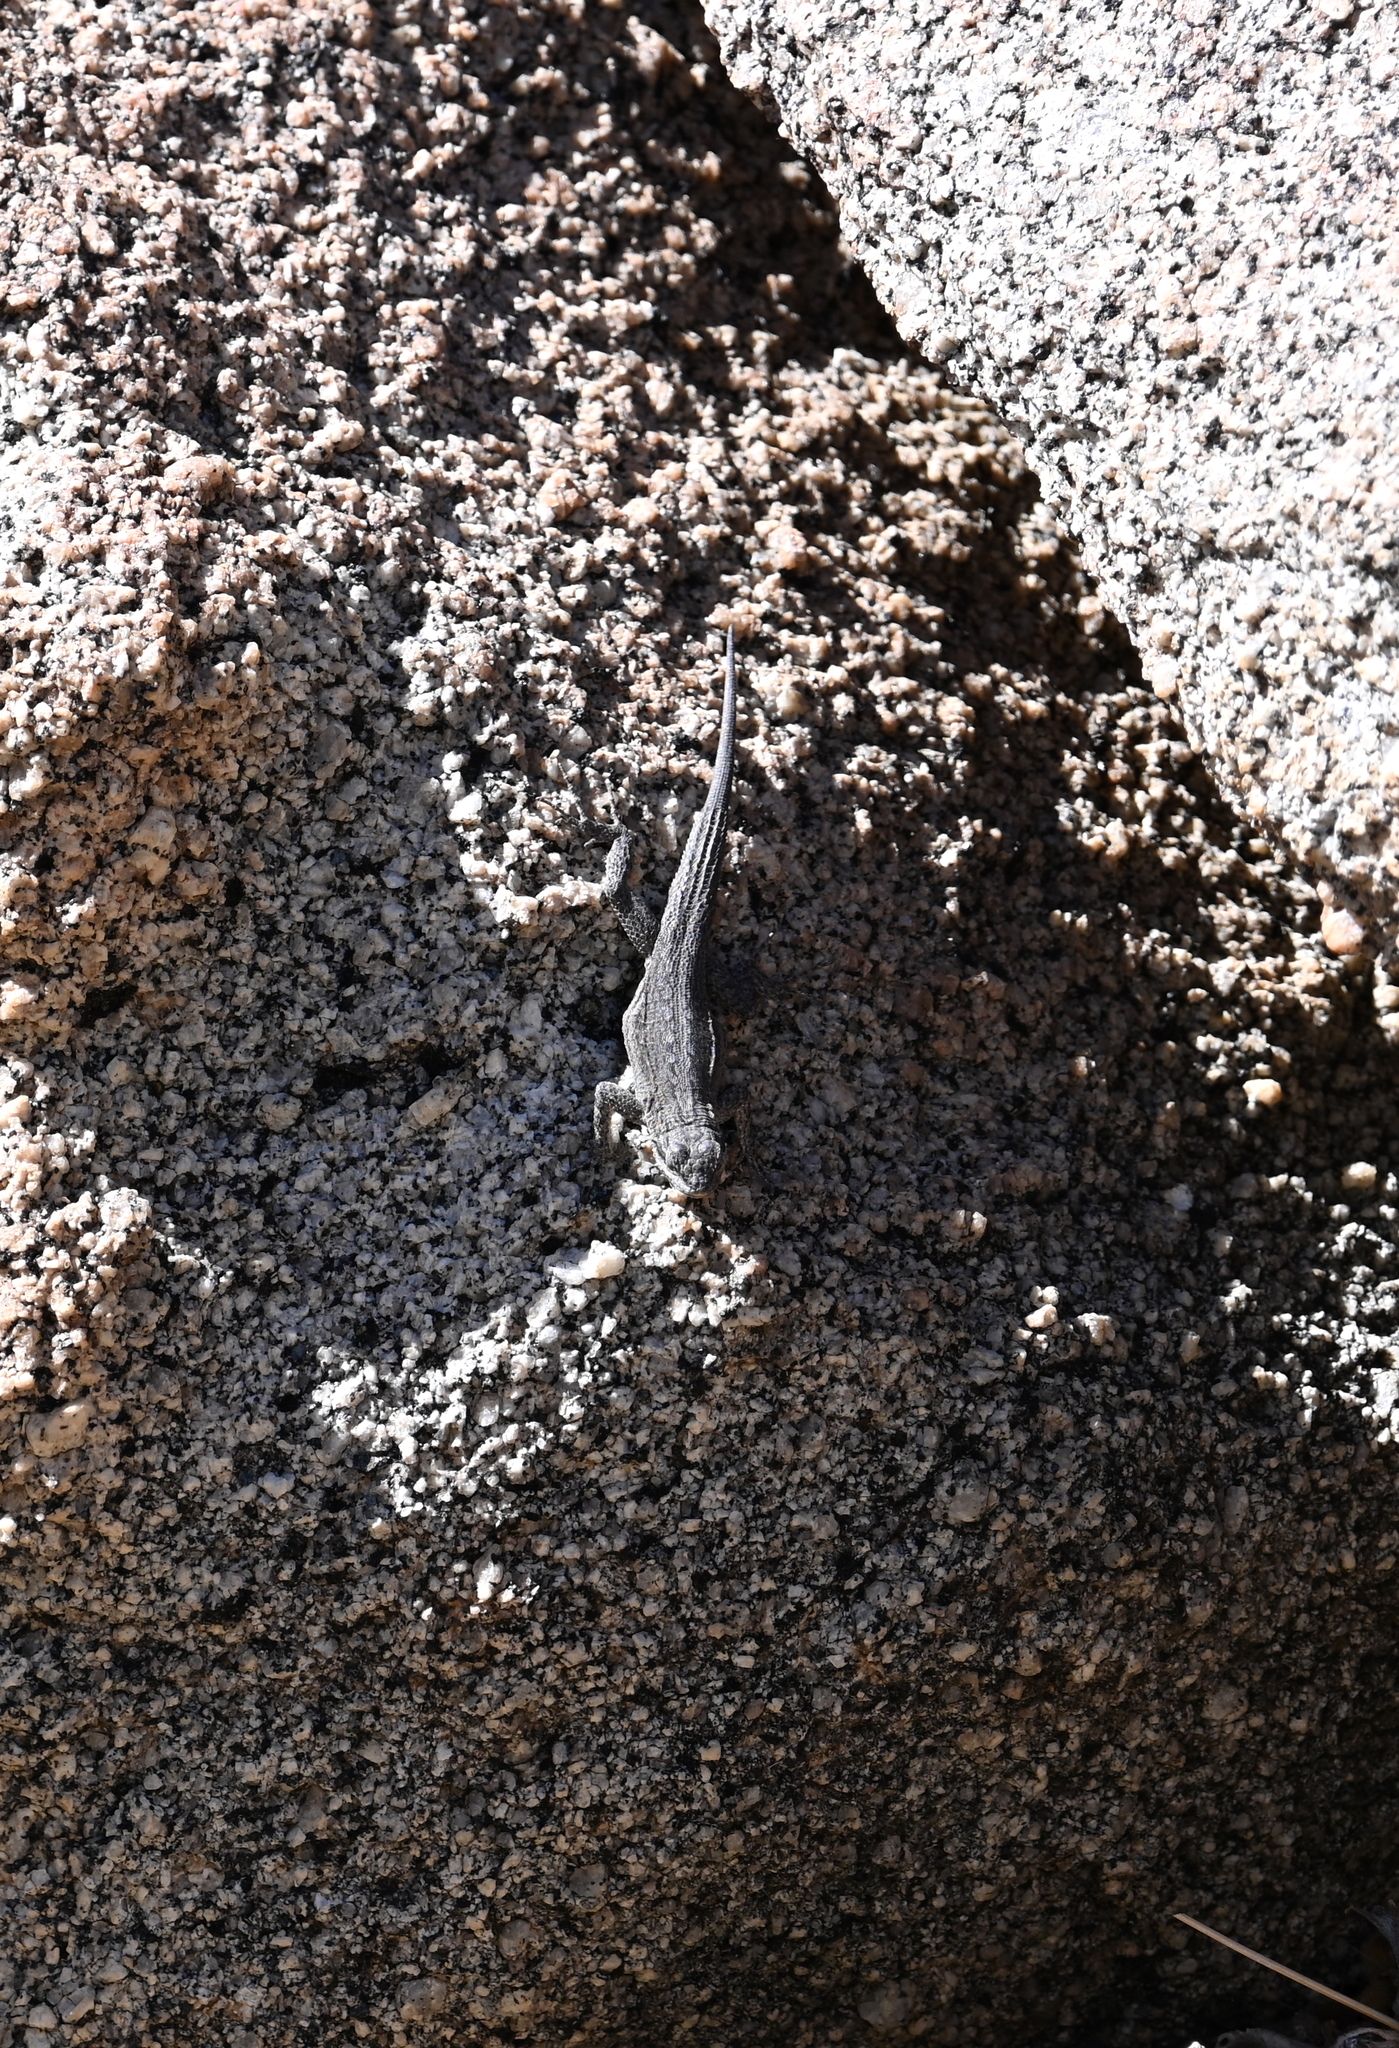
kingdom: Animalia
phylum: Chordata
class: Squamata
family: Phrynosomatidae
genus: Urosaurus
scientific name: Urosaurus nigricauda
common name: Baja california brush lizard
